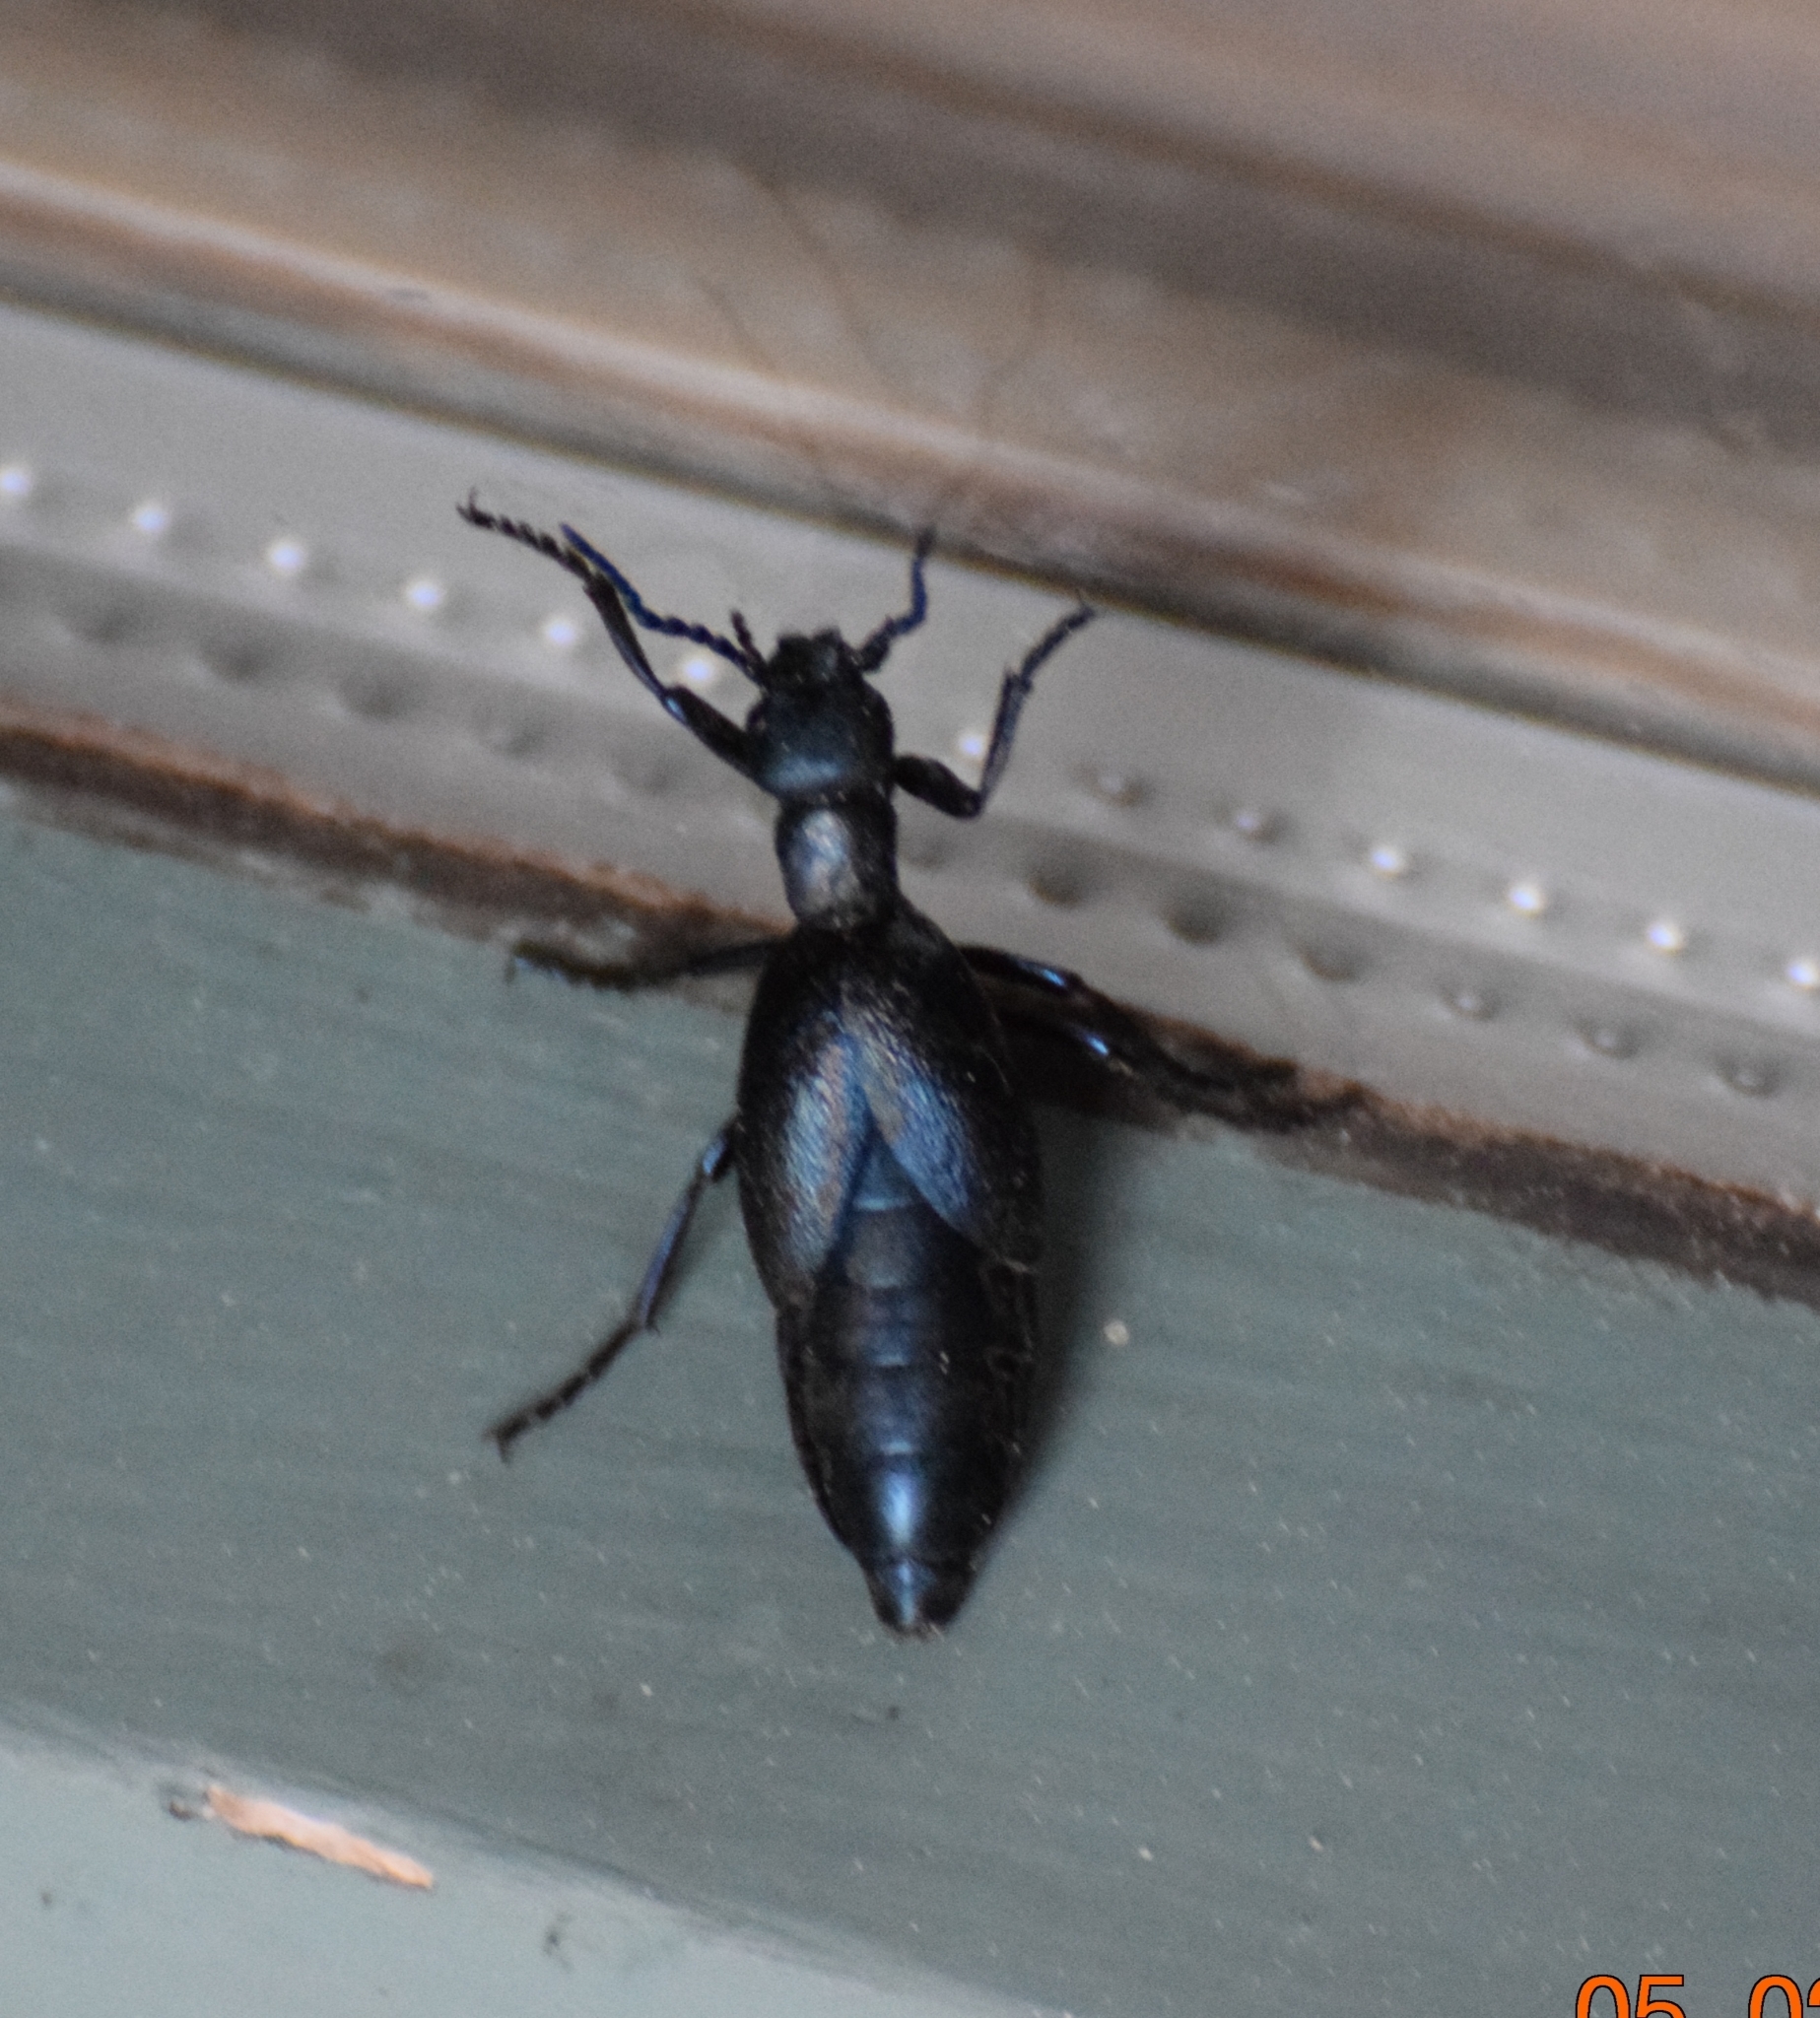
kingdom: Animalia
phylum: Arthropoda
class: Insecta
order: Coleoptera
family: Meloidae
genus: Meloe
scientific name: Meloe
